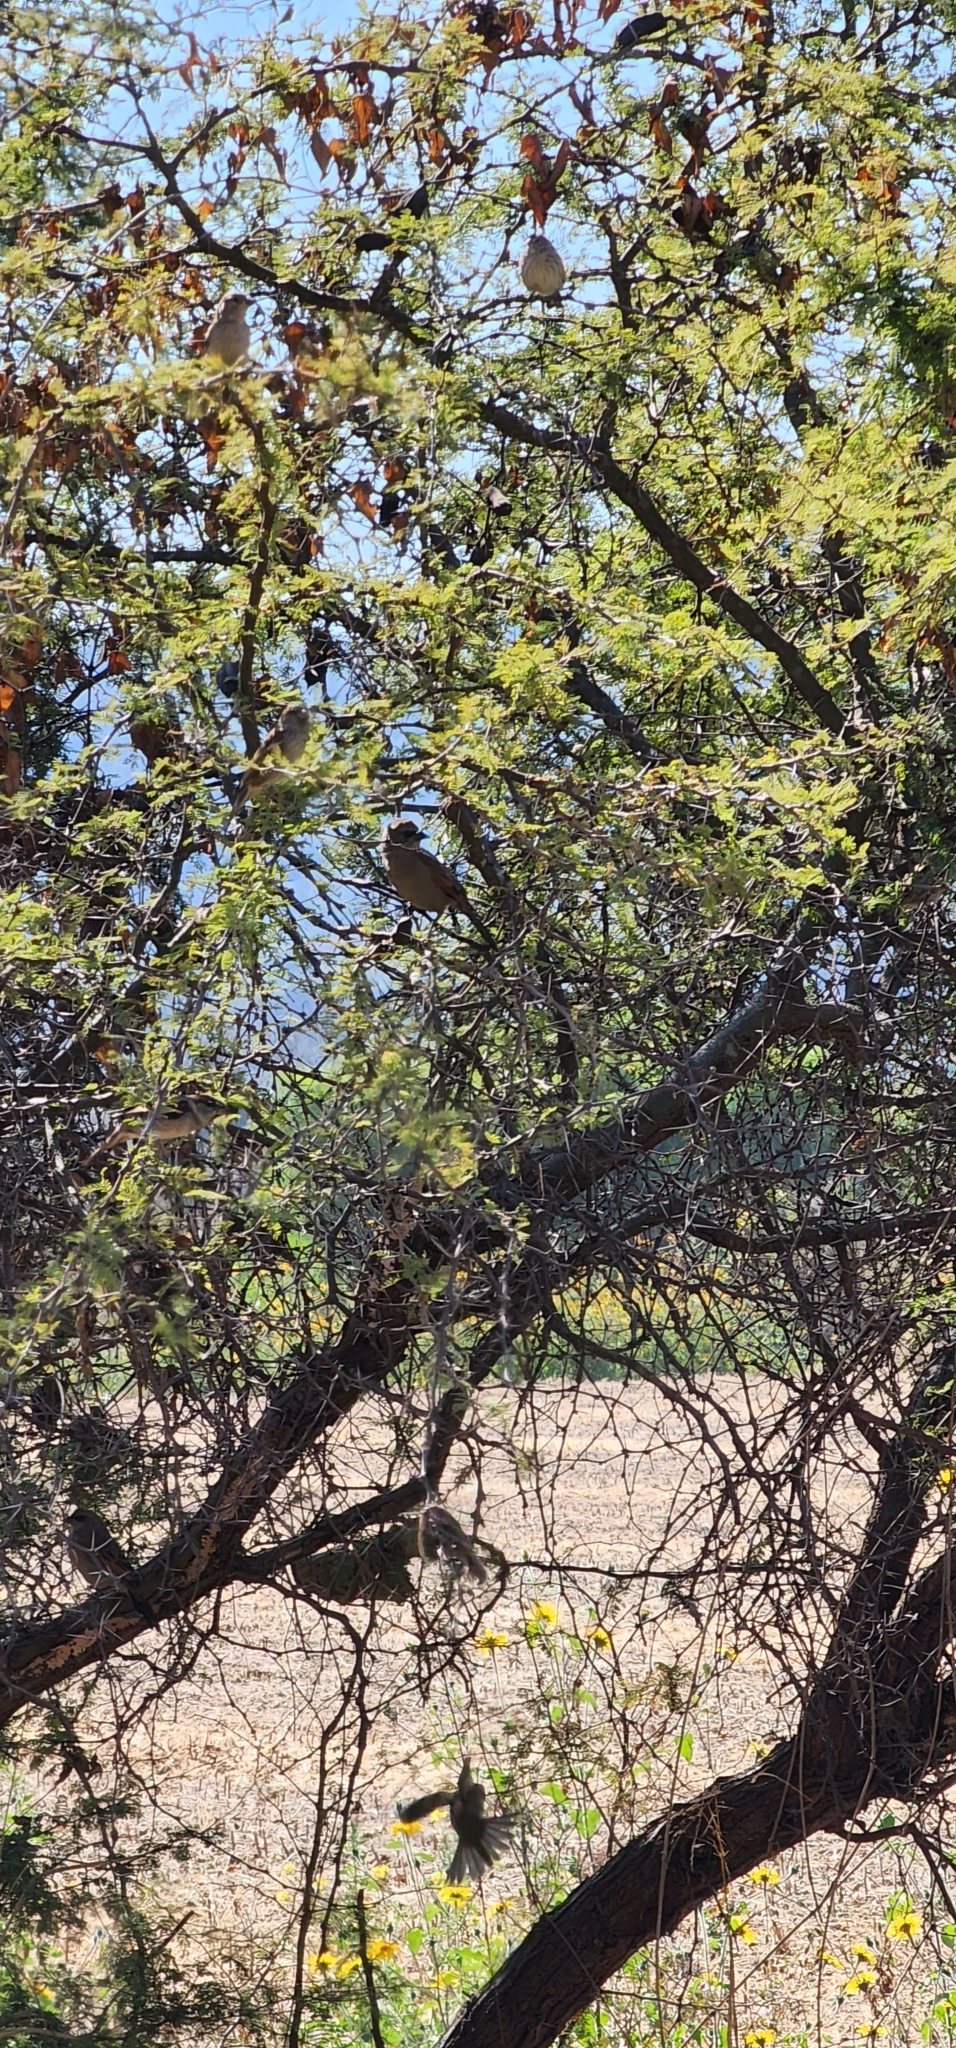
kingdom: Animalia
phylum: Chordata
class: Aves
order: Passeriformes
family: Icteridae
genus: Agelaioides
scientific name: Agelaioides badius
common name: Baywing
